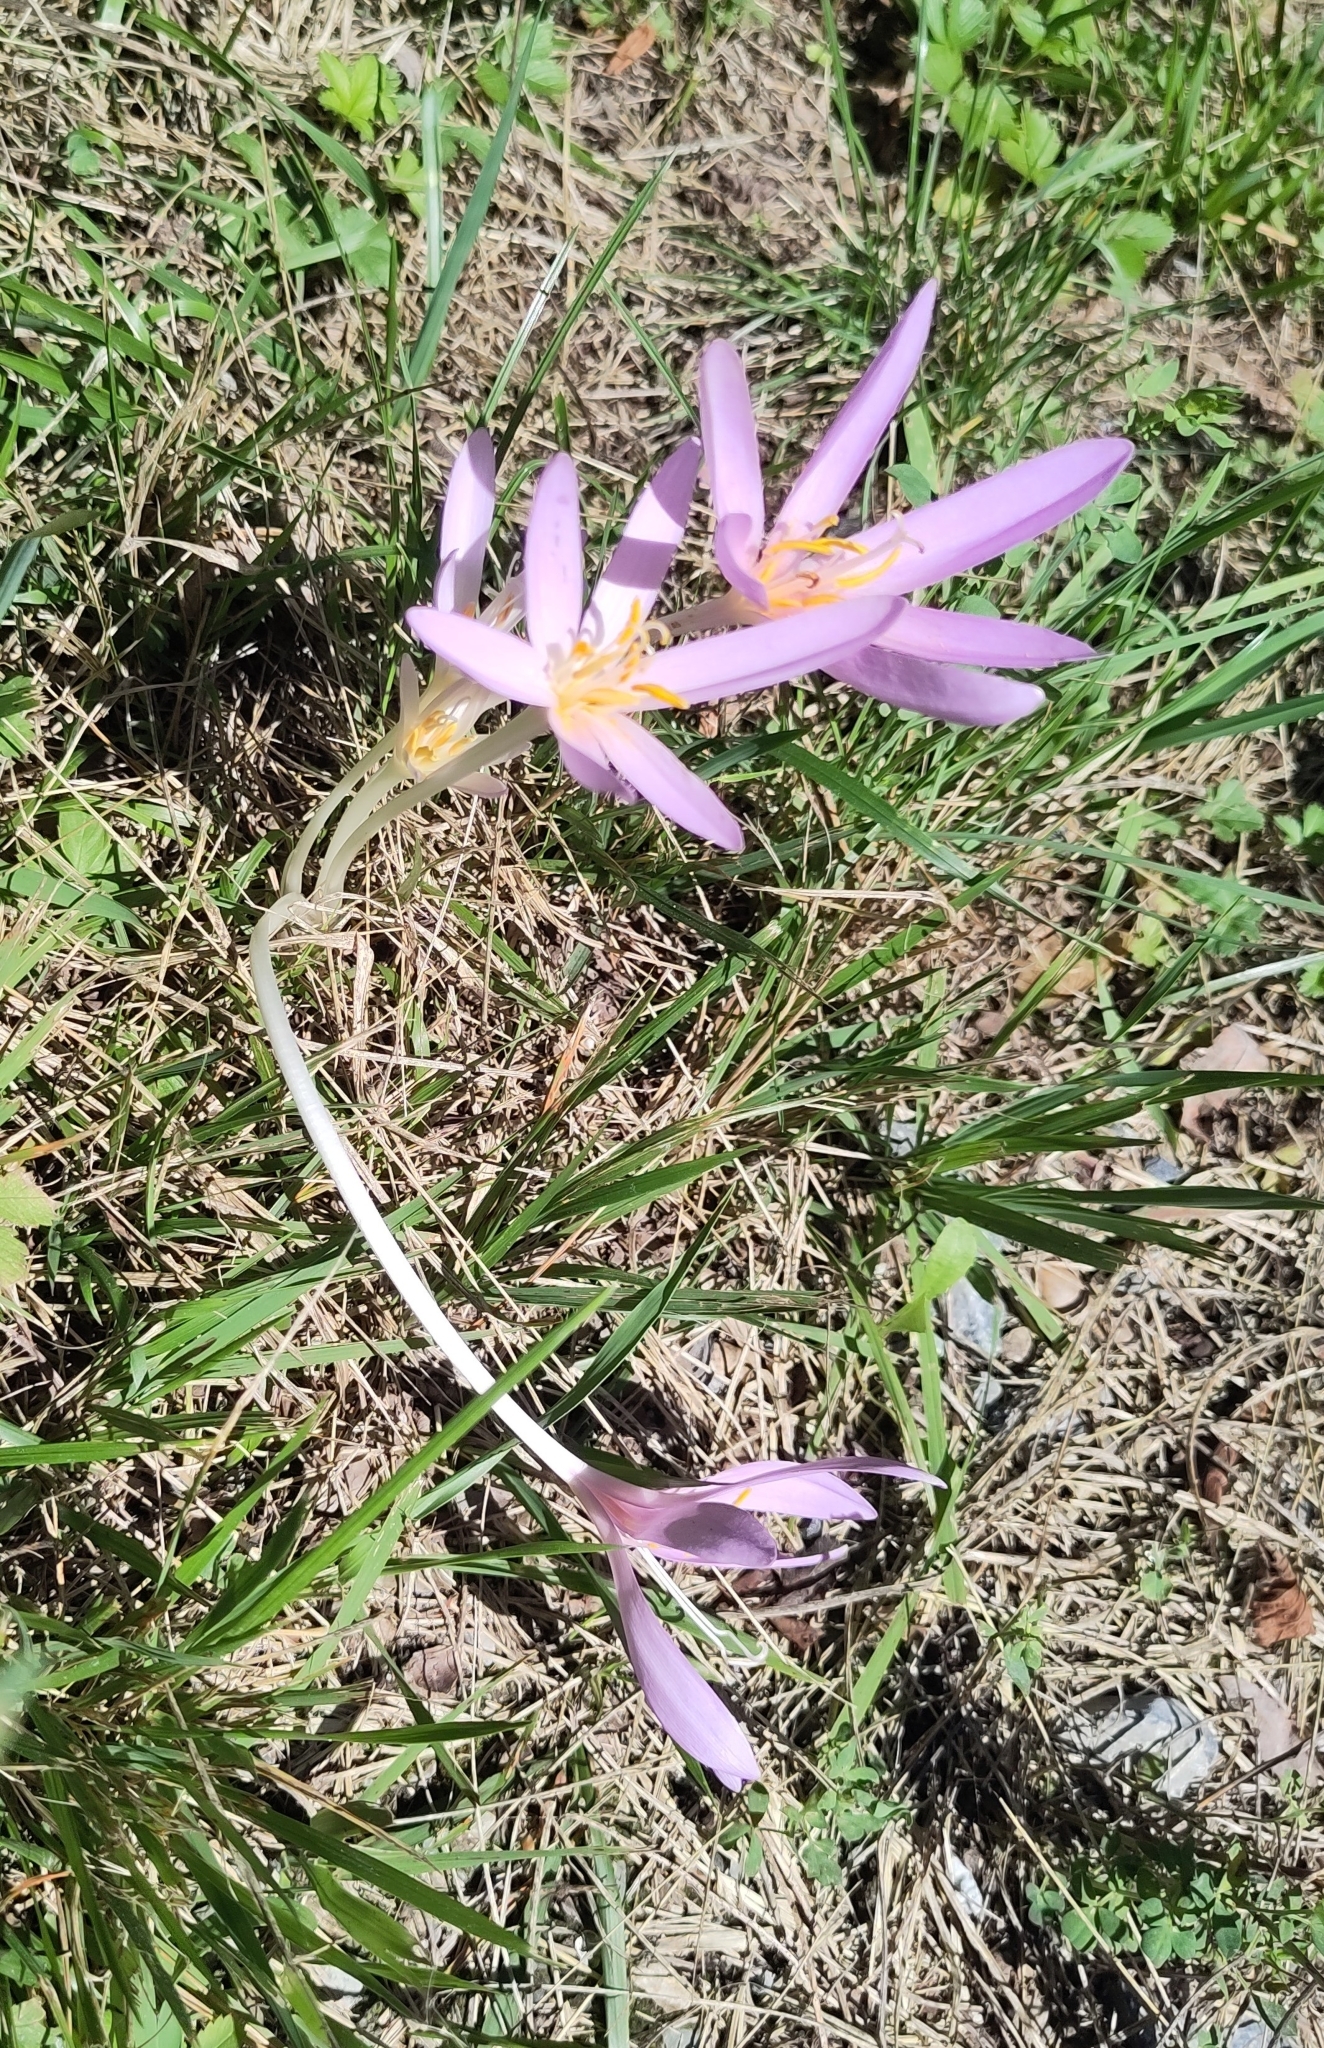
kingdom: Plantae
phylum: Tracheophyta
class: Liliopsida
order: Liliales
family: Colchicaceae
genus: Colchicum
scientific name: Colchicum autumnale
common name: Autumn crocus
